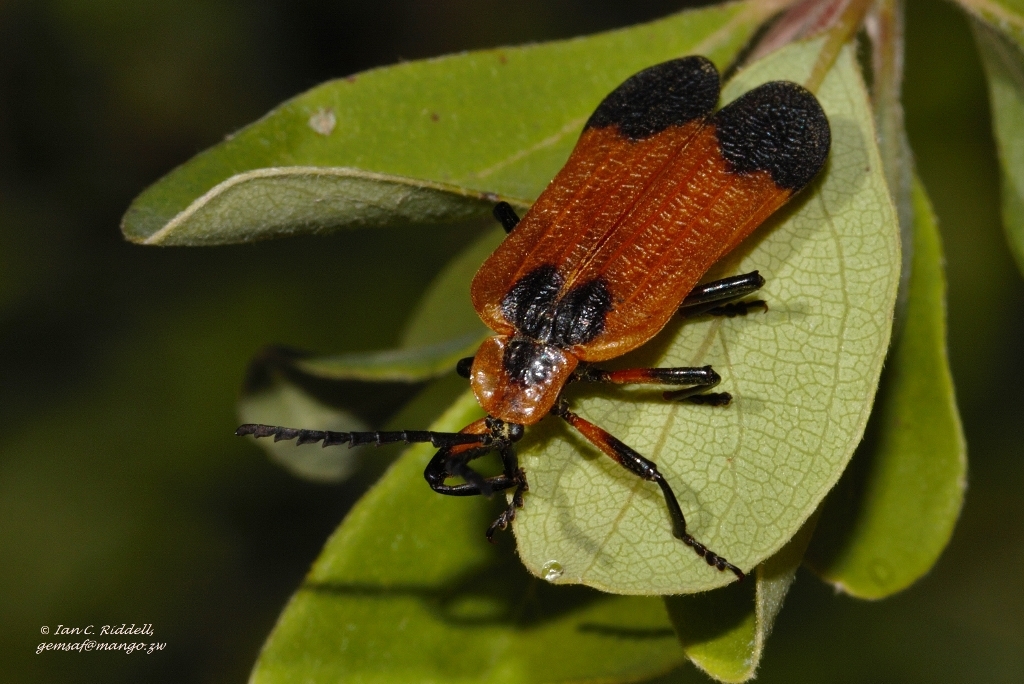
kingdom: Animalia
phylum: Arthropoda
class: Insecta
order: Coleoptera
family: Lycidae
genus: Lycus
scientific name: Lycus
